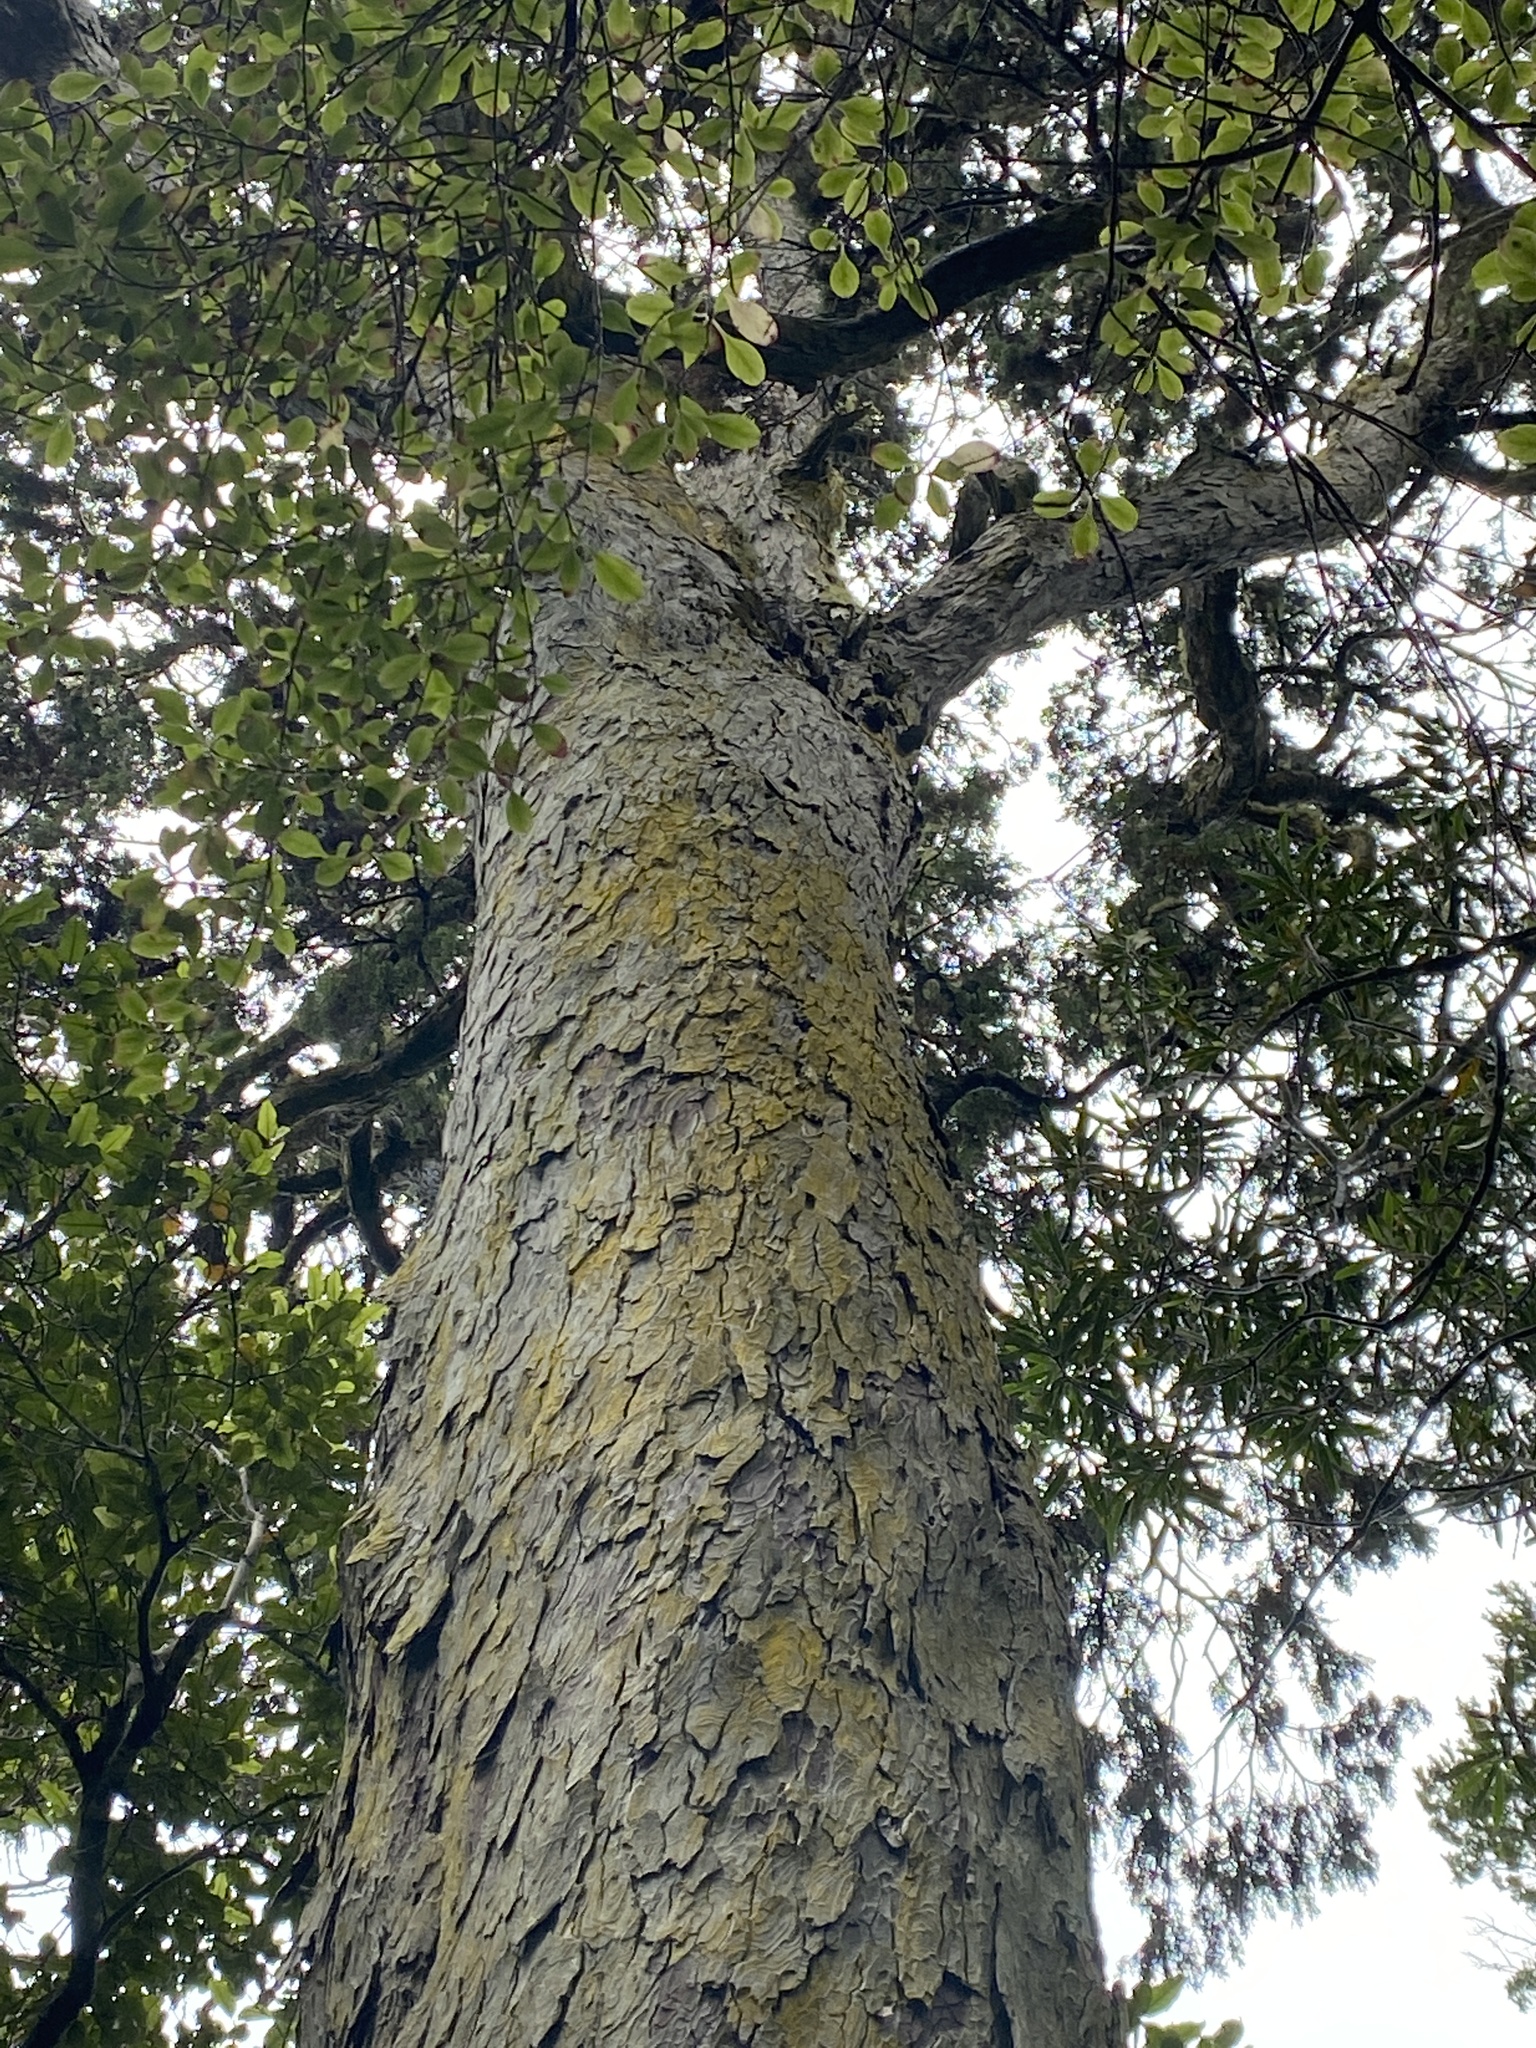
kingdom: Plantae
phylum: Tracheophyta
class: Pinopsida
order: Pinales
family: Podocarpaceae
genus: Dacrydium
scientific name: Dacrydium cupressinum
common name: Red pine
